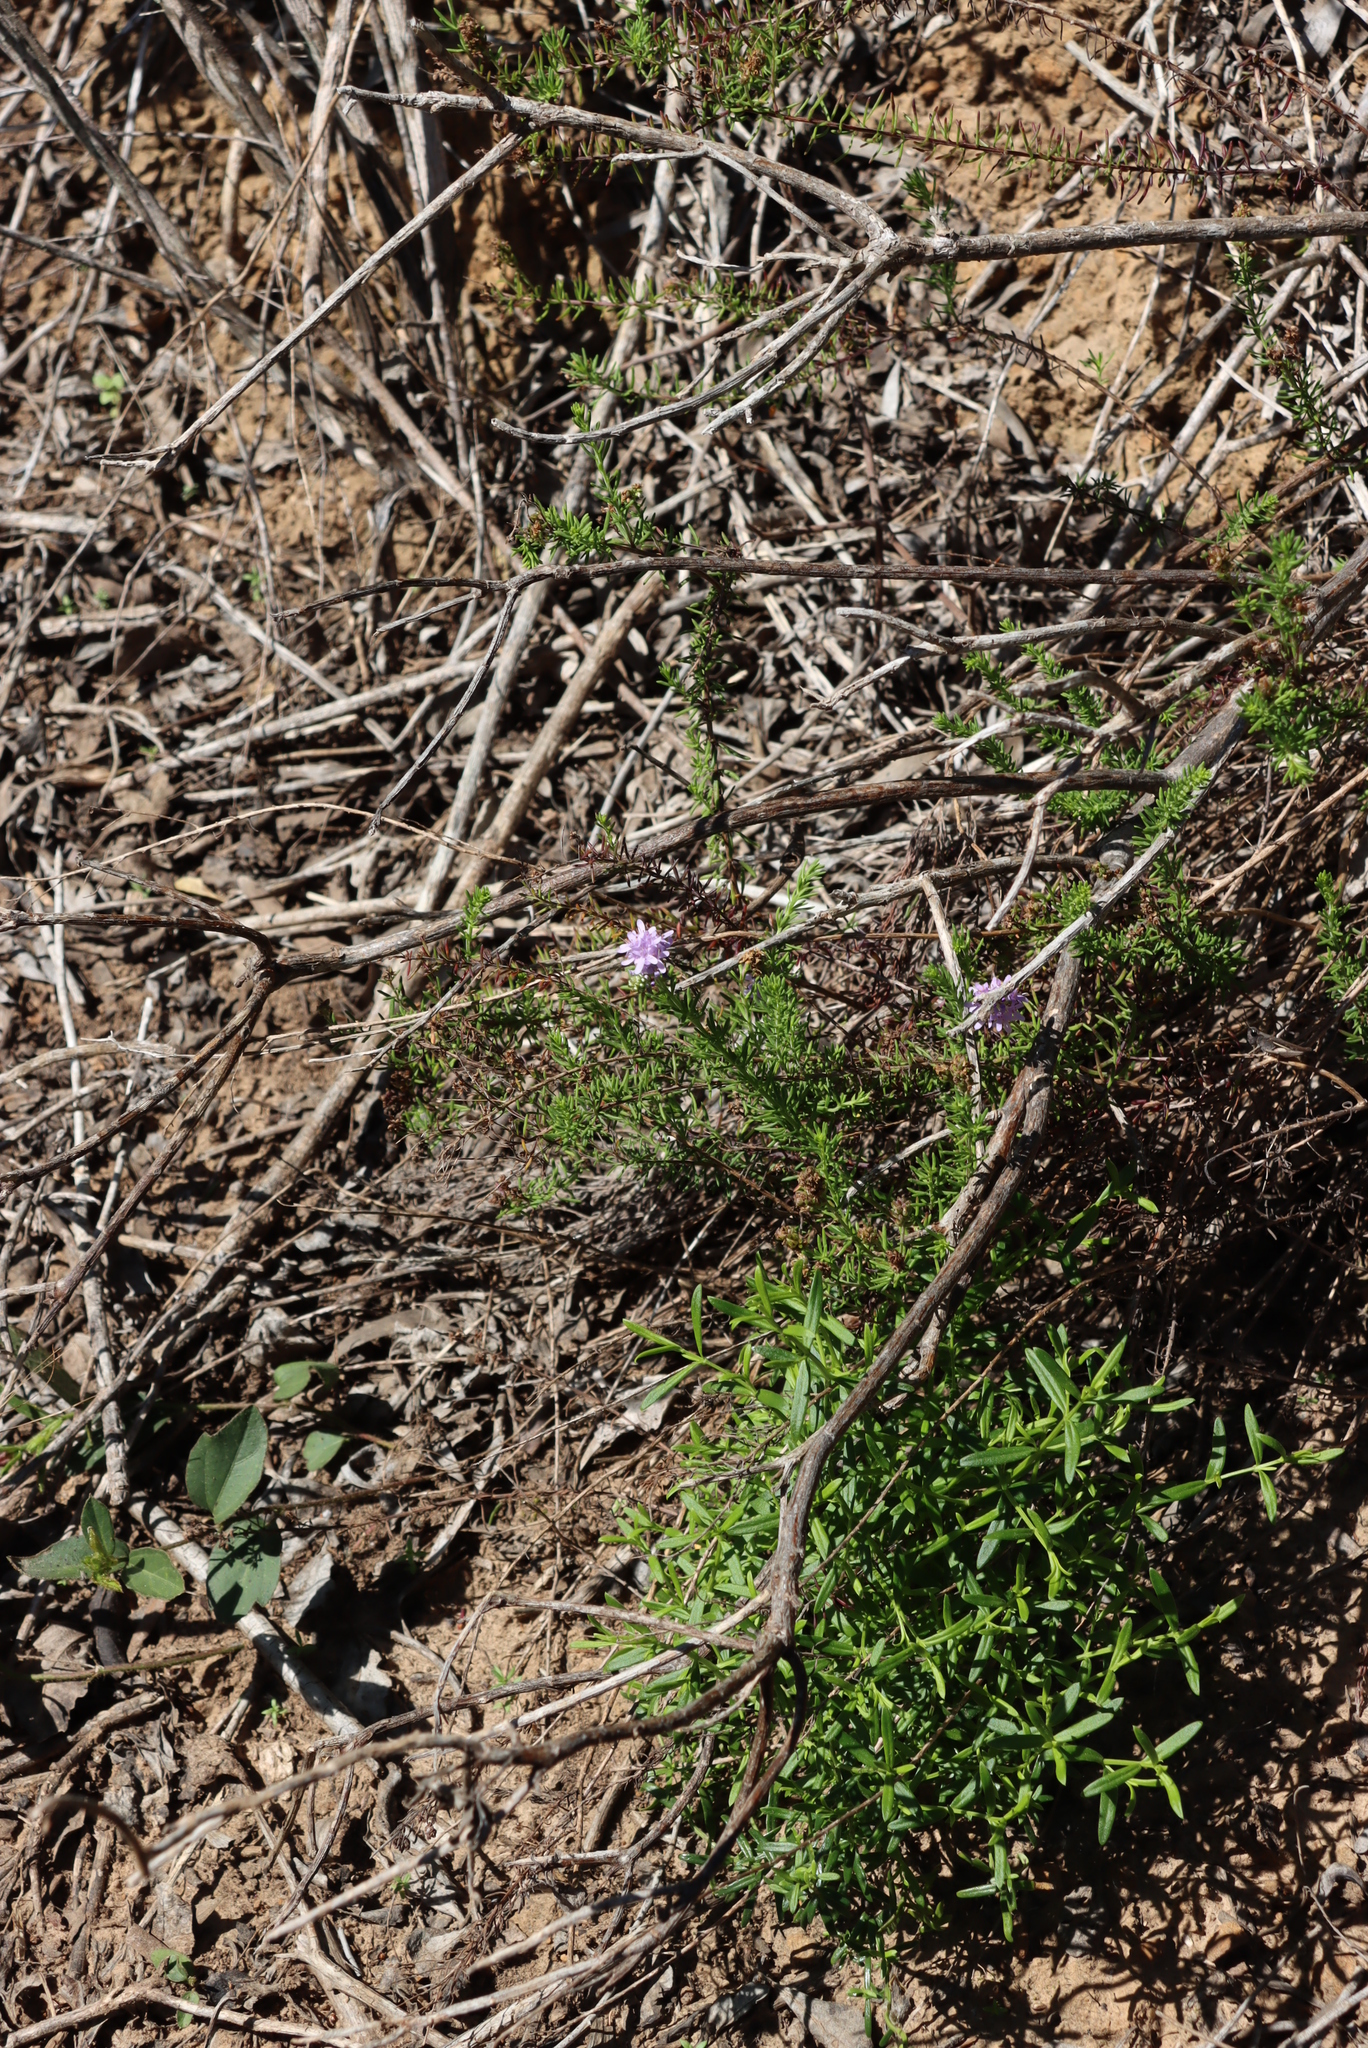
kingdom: Plantae
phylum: Tracheophyta
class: Magnoliopsida
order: Lamiales
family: Scrophulariaceae
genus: Selago
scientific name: Selago villicaulis
